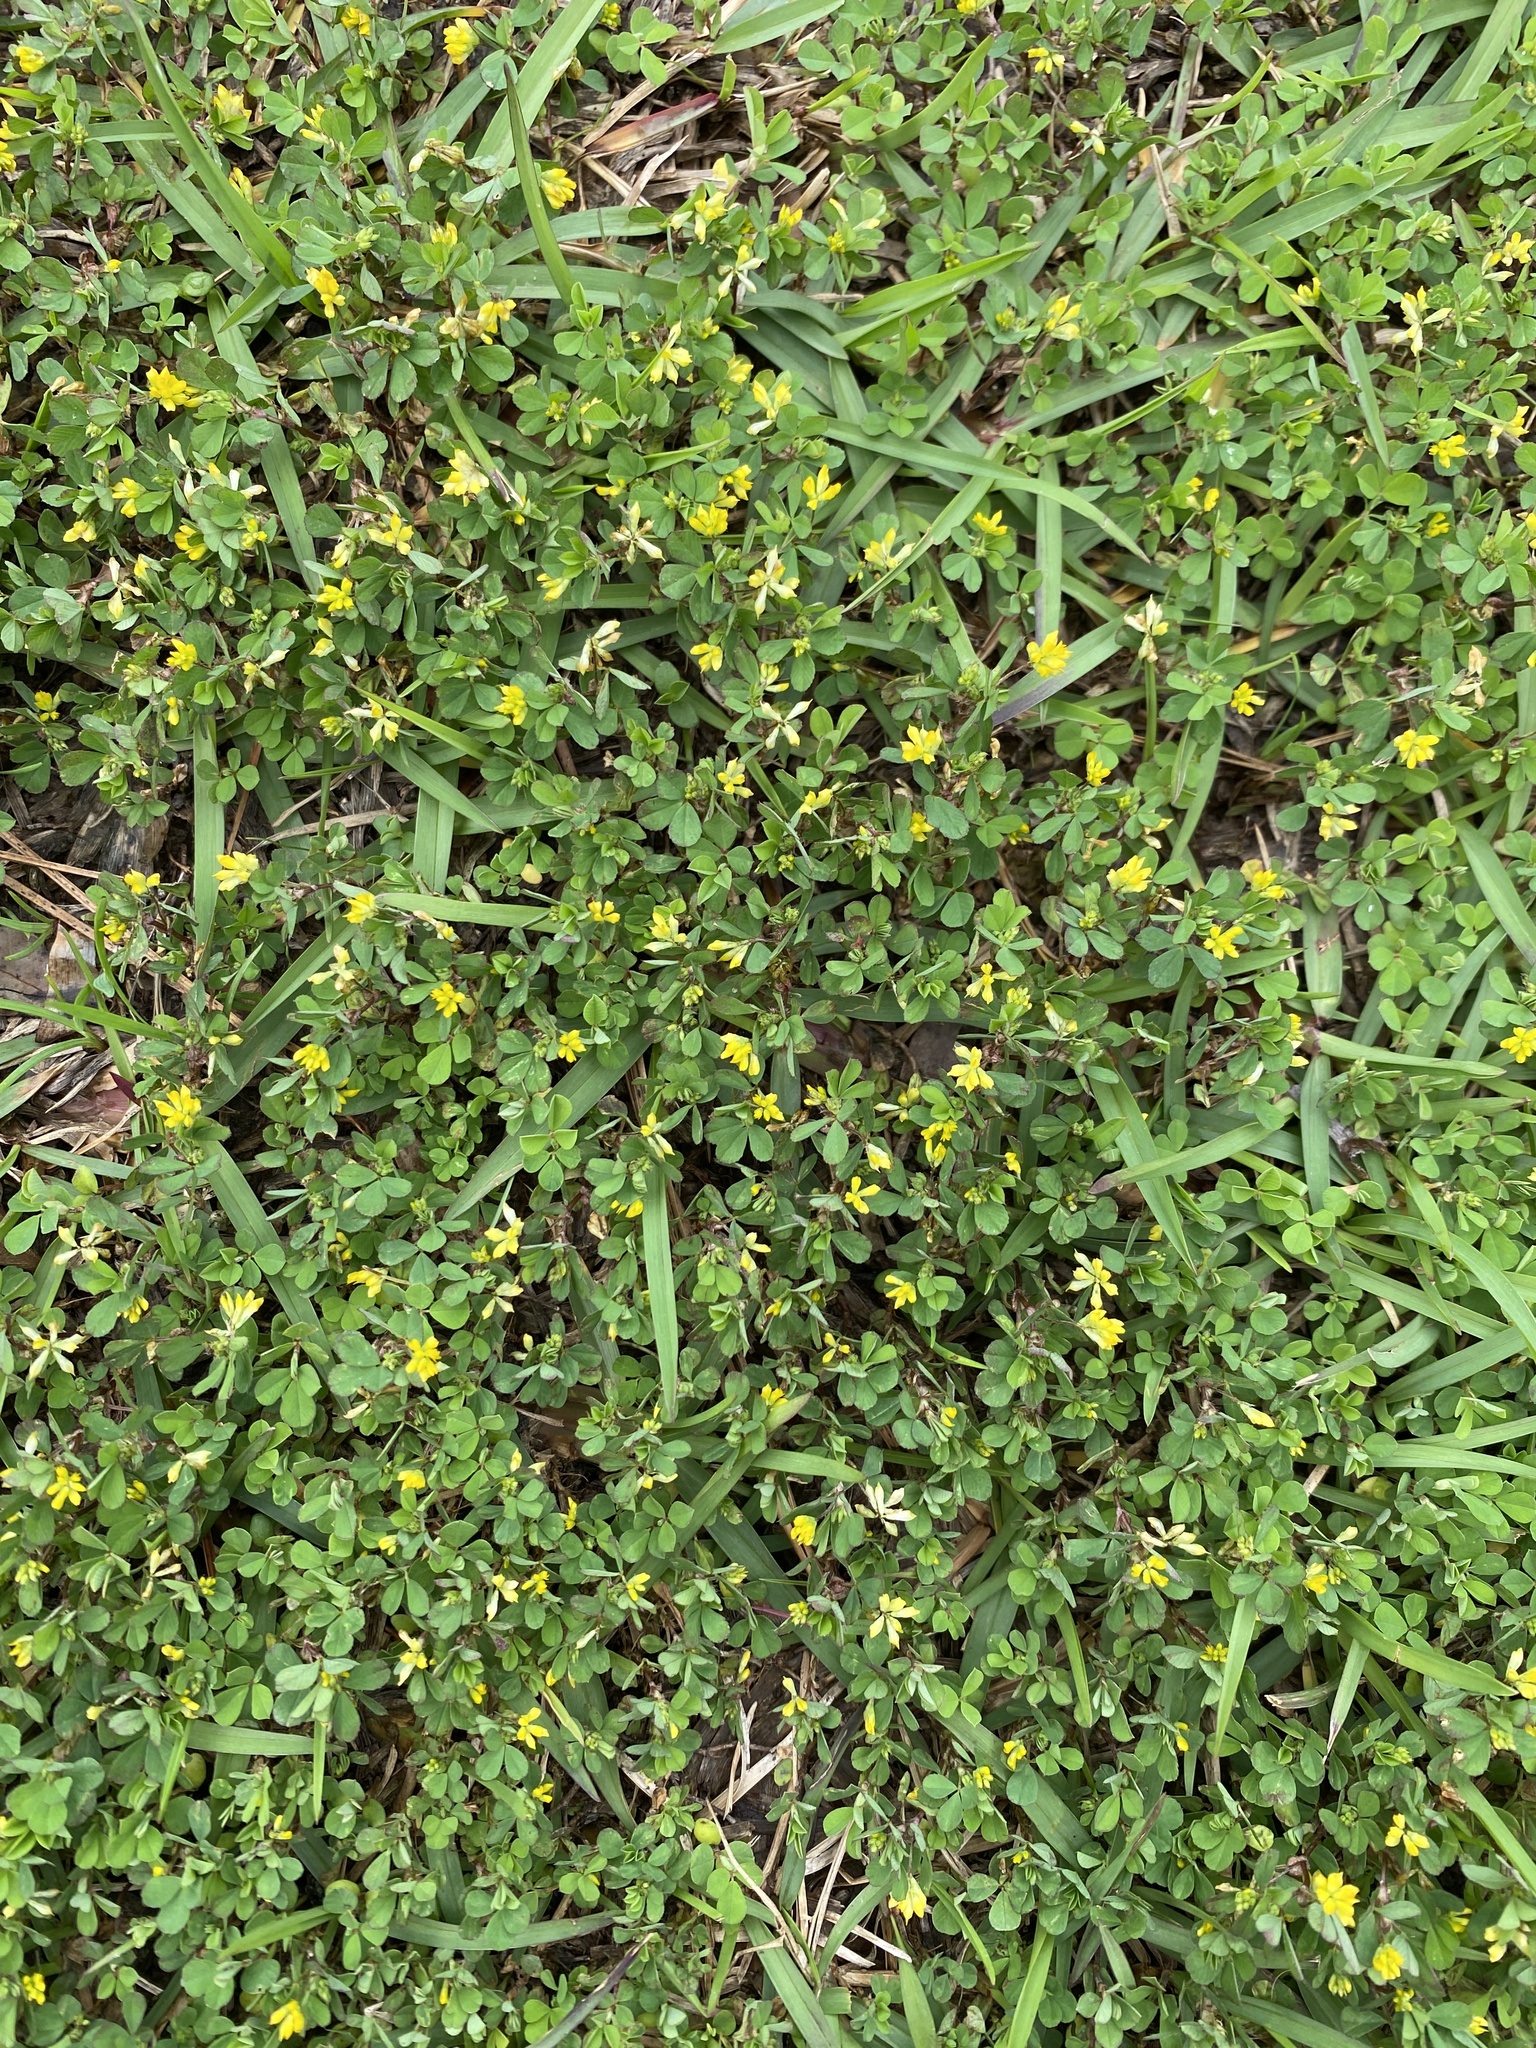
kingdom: Plantae
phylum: Tracheophyta
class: Magnoliopsida
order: Fabales
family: Fabaceae
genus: Trifolium
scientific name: Trifolium dubium
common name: Suckling clover
